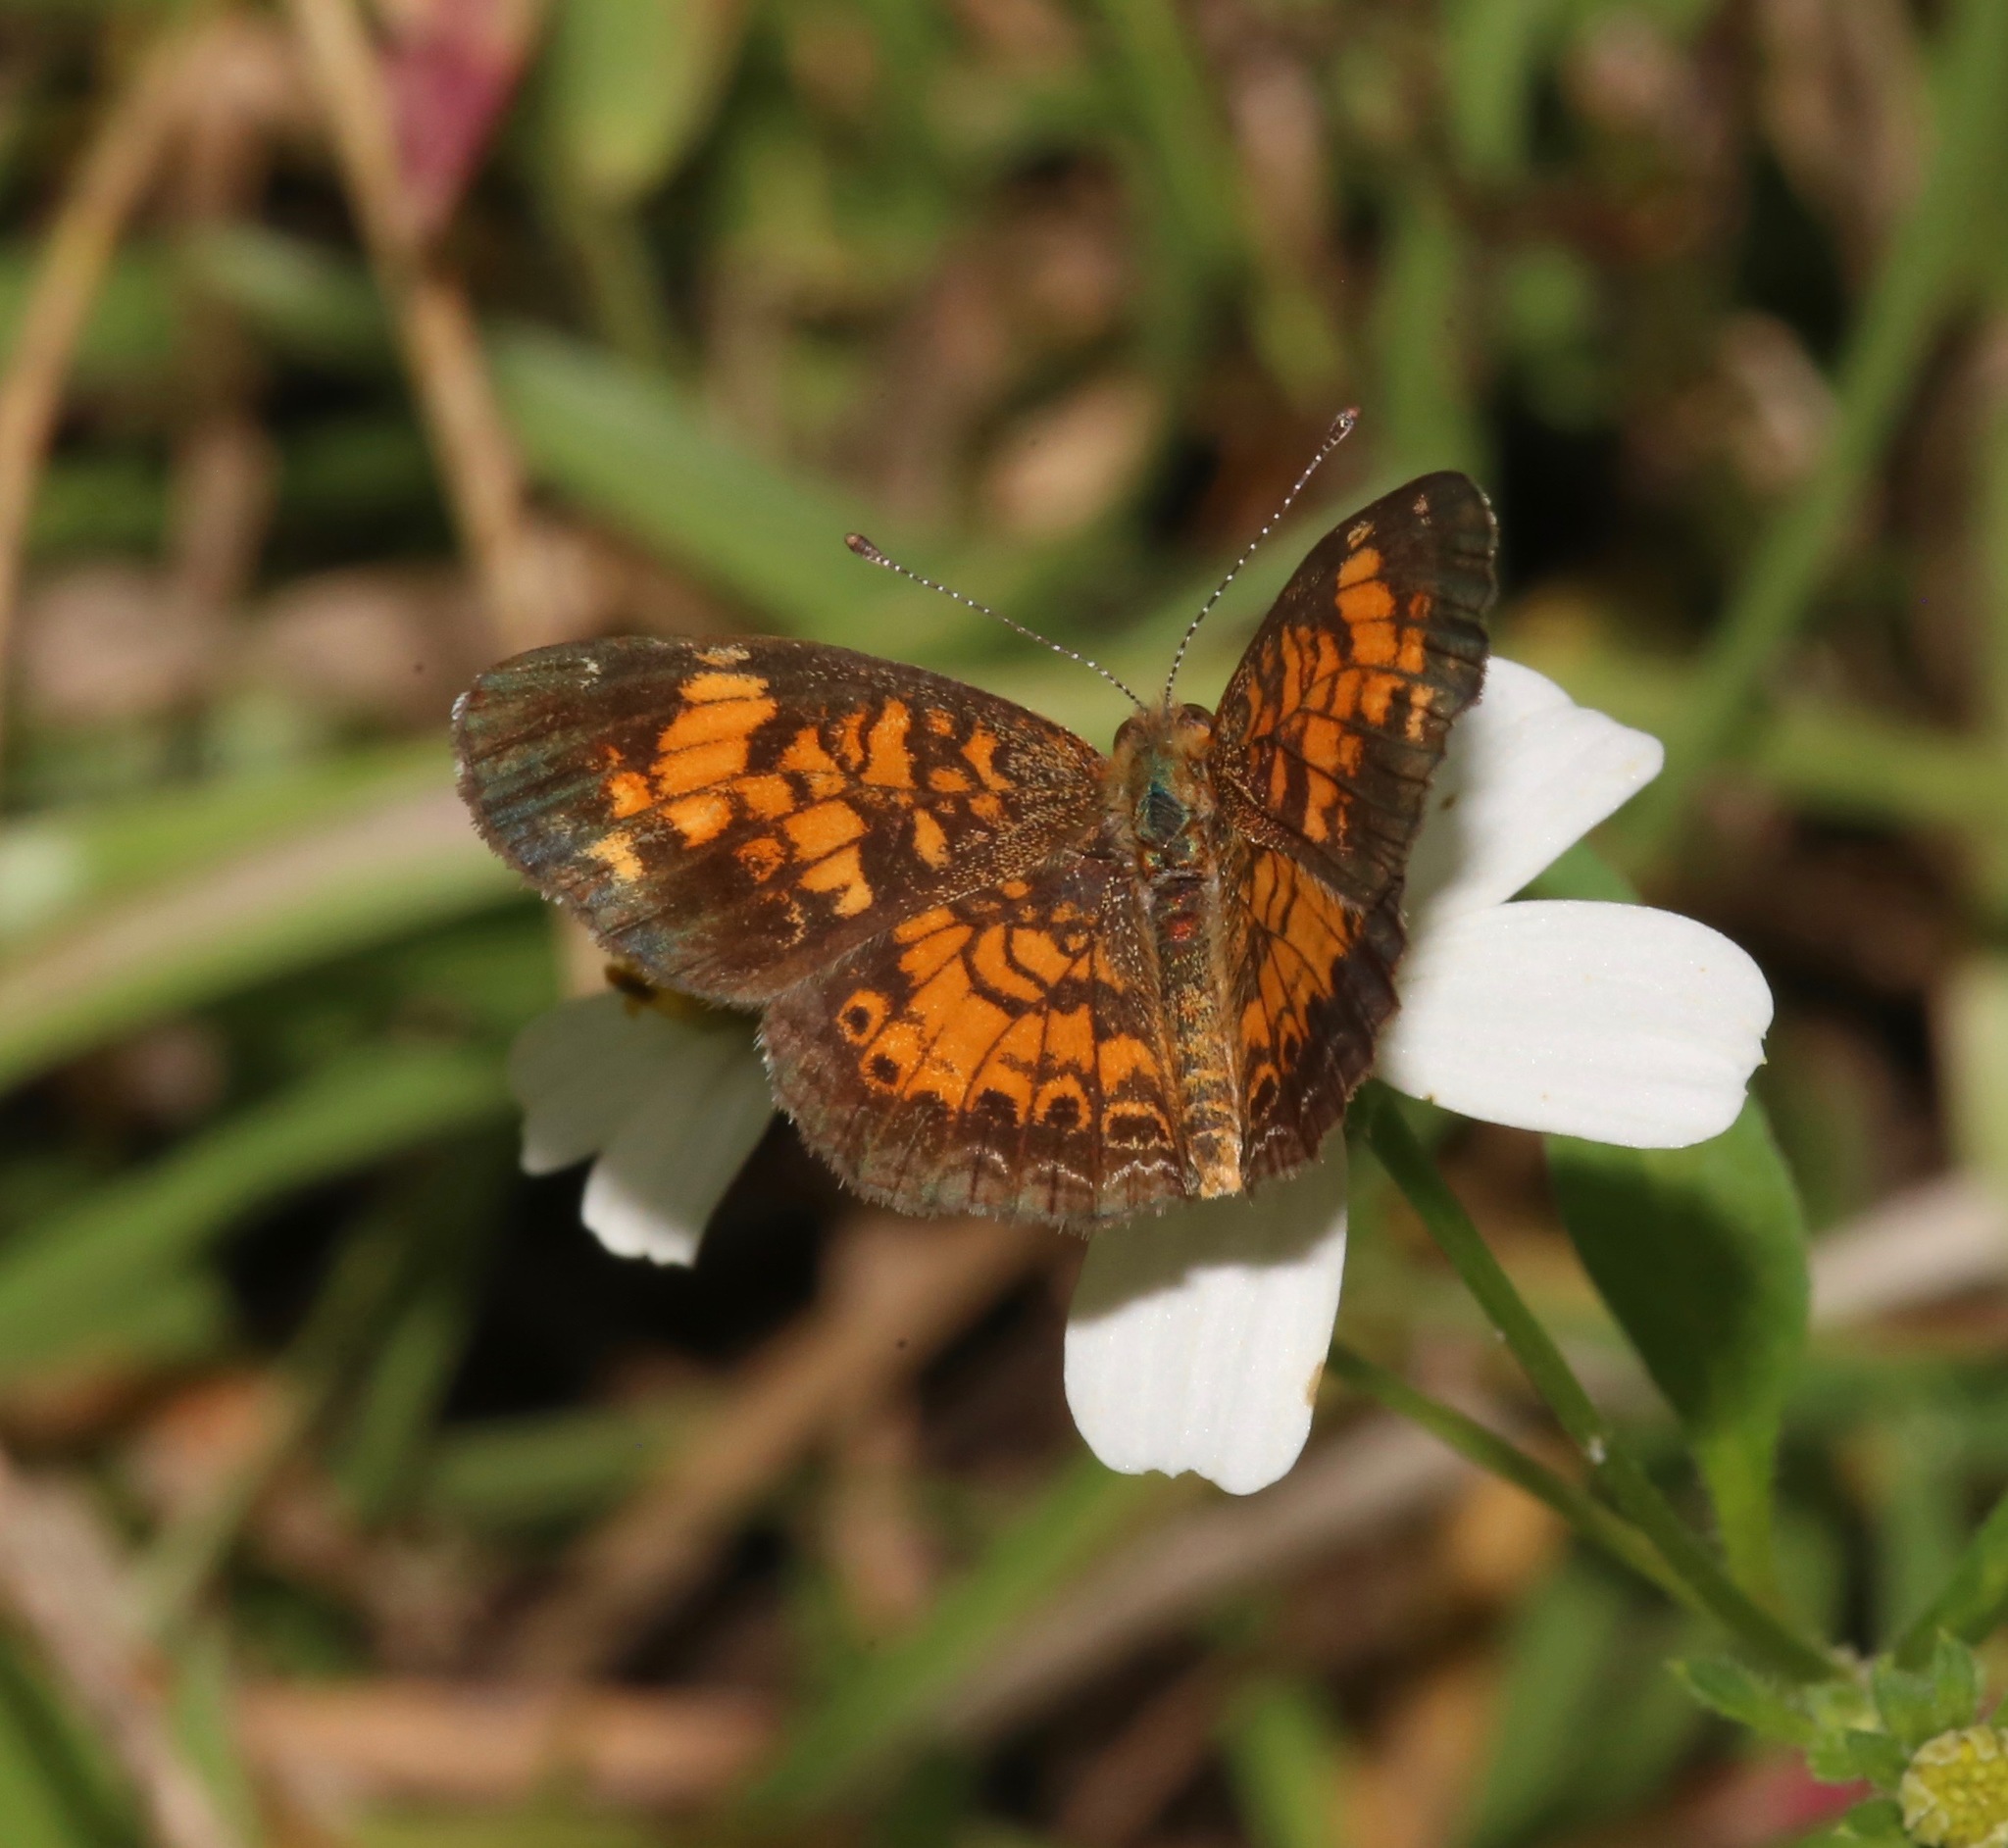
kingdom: Animalia
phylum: Arthropoda
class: Insecta
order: Lepidoptera
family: Nymphalidae
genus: Phyciodes
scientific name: Phyciodes tharos
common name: Pearl crescent
